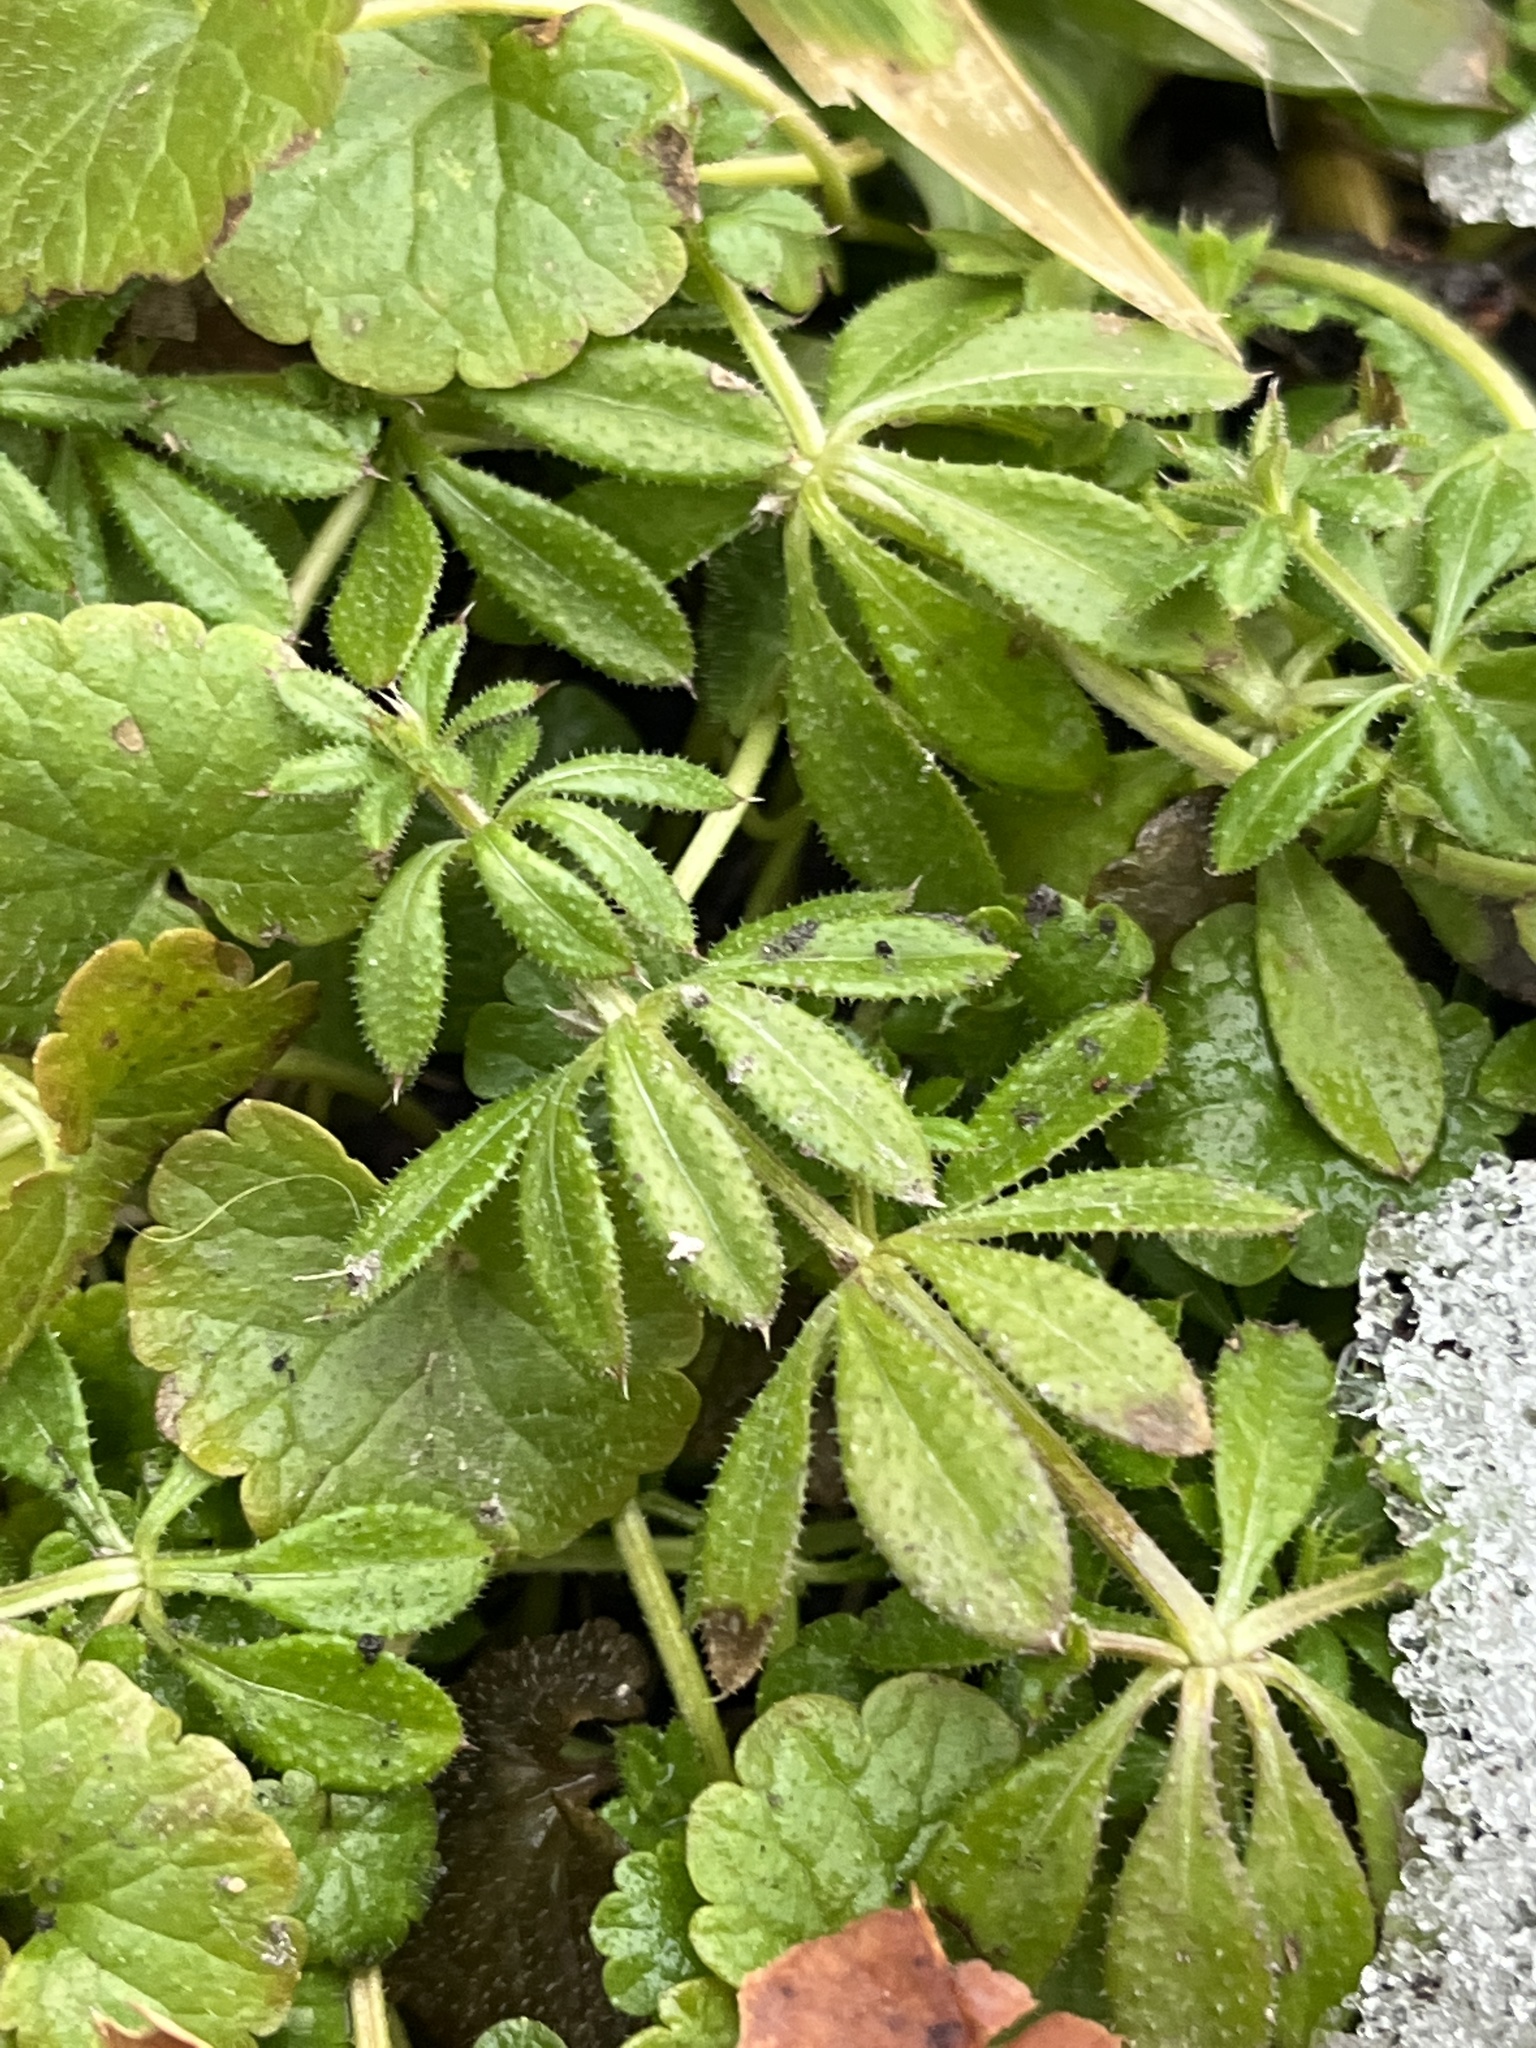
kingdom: Plantae
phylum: Tracheophyta
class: Magnoliopsida
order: Gentianales
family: Rubiaceae
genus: Galium
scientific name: Galium aparine
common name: Cleavers
